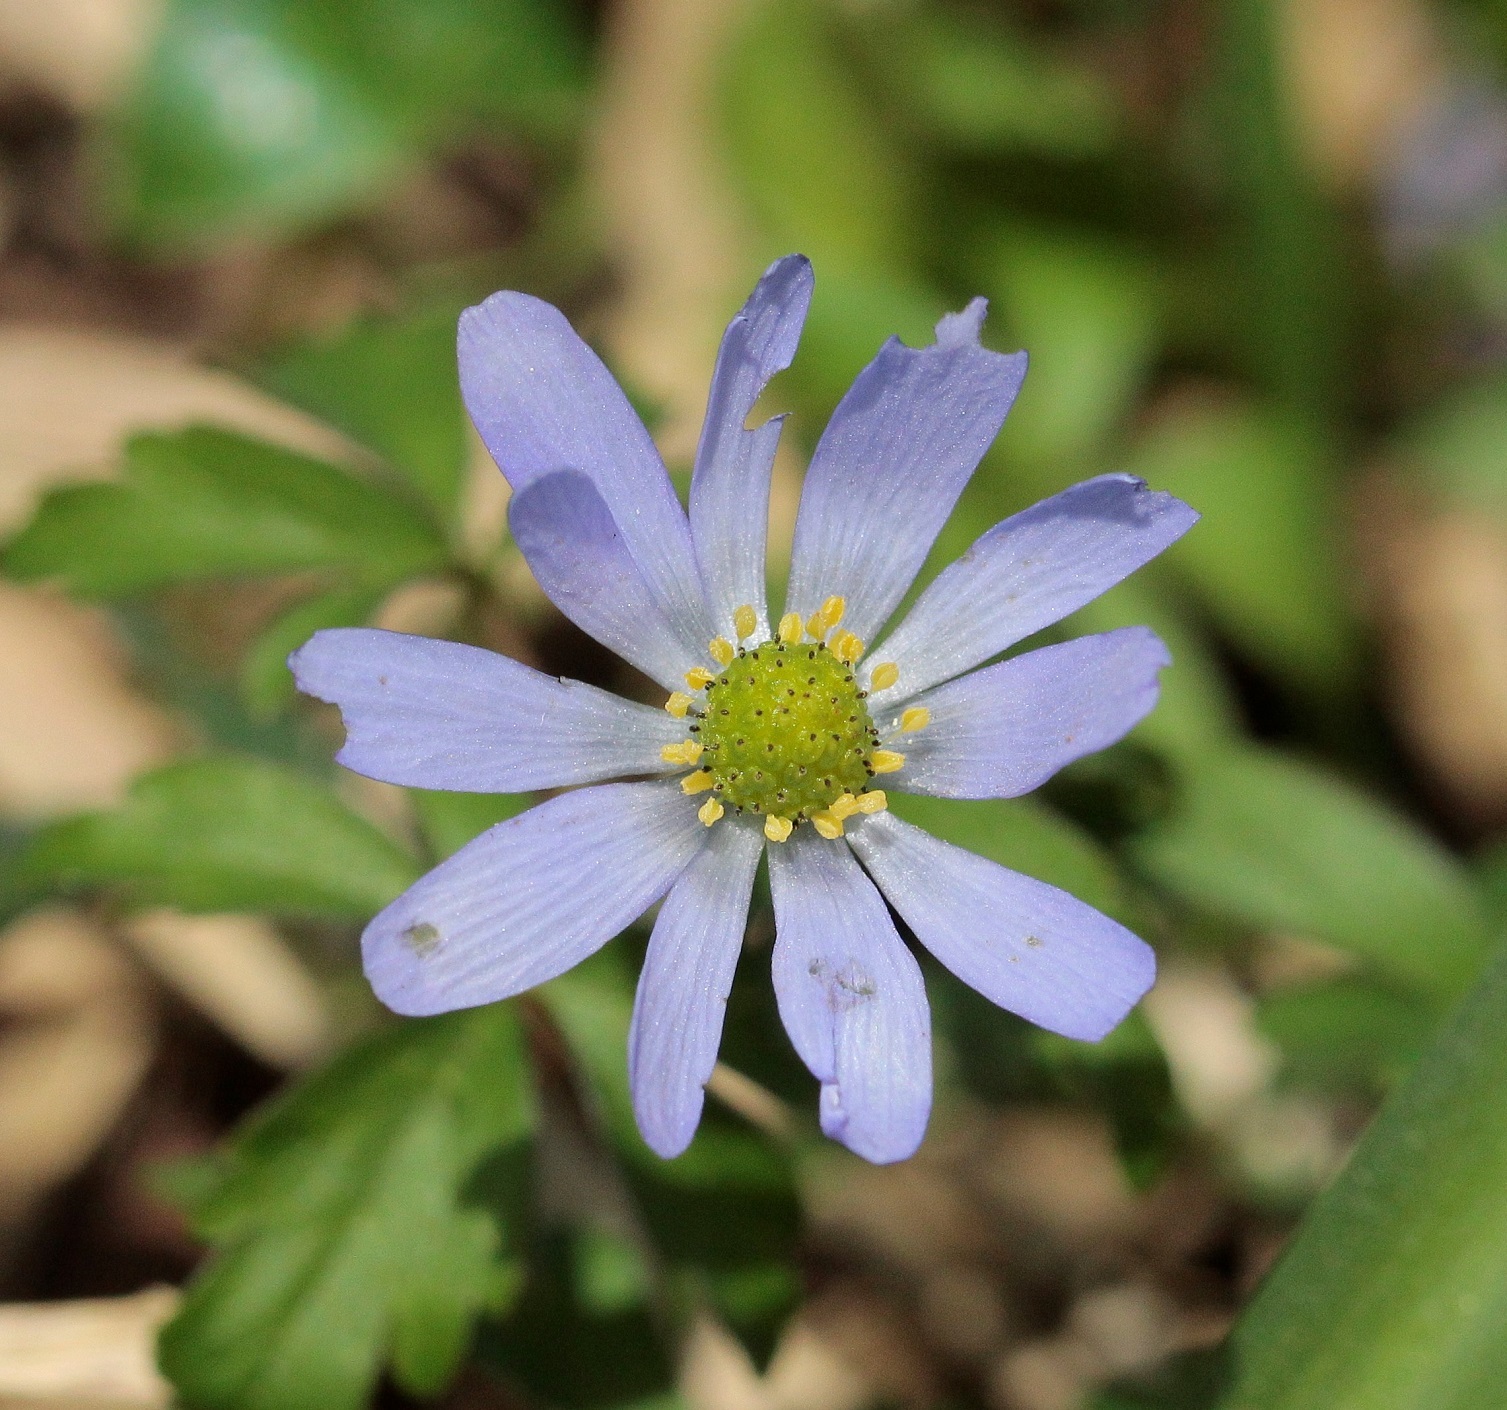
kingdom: Plantae
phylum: Tracheophyta
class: Magnoliopsida
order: Ranunculales
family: Ranunculaceae
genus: Anemone
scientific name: Anemone caucasica
